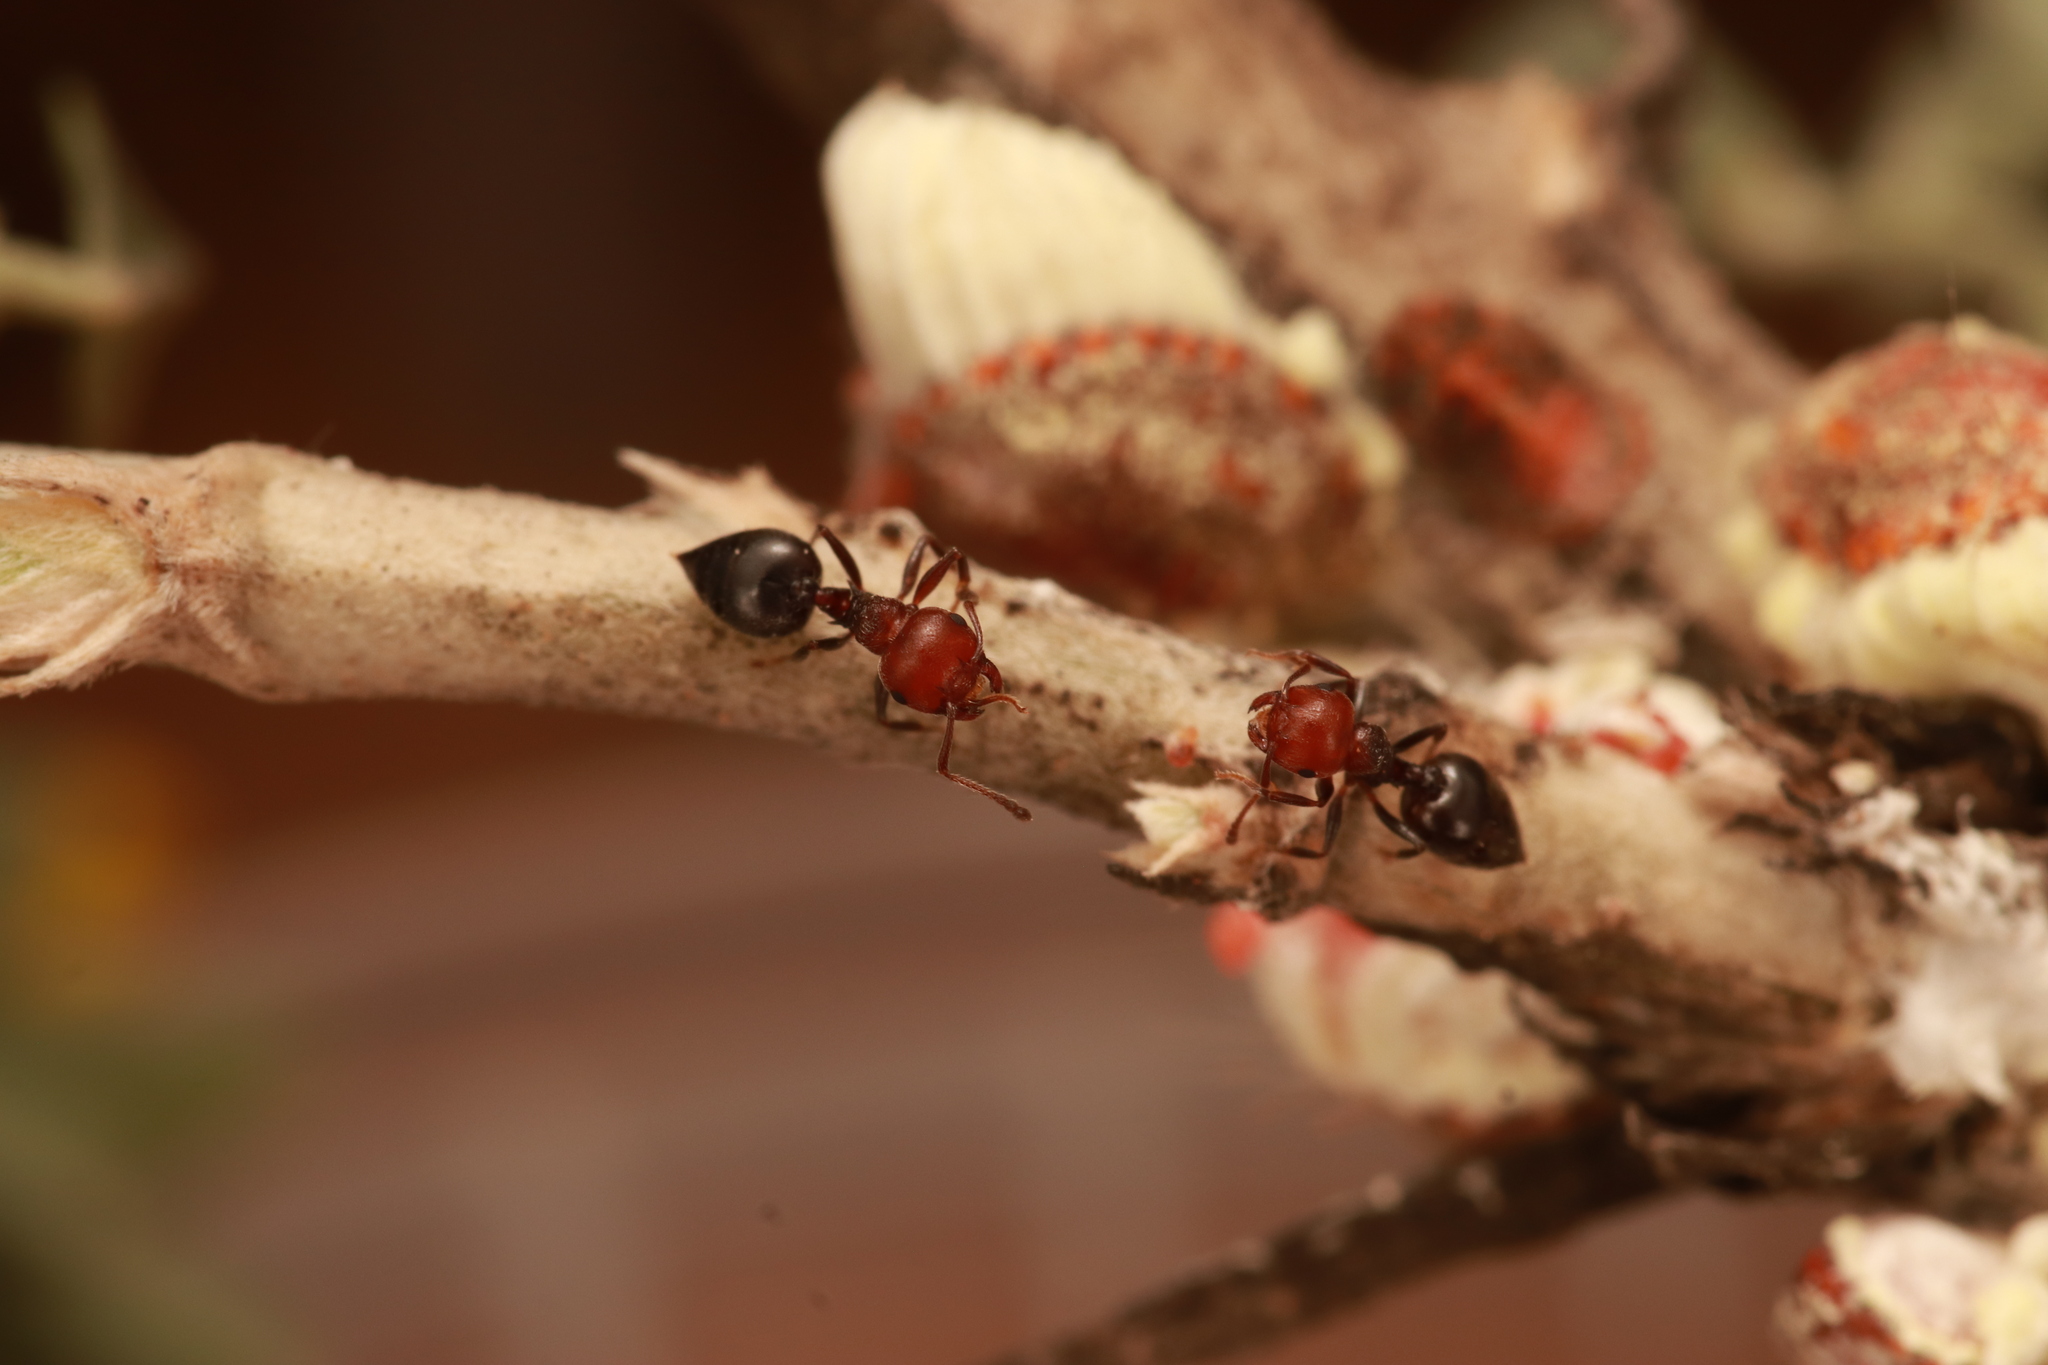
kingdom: Animalia
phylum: Arthropoda
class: Insecta
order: Hymenoptera
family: Formicidae
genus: Crematogaster
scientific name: Crematogaster scutellaris
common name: Fourmi du liège
